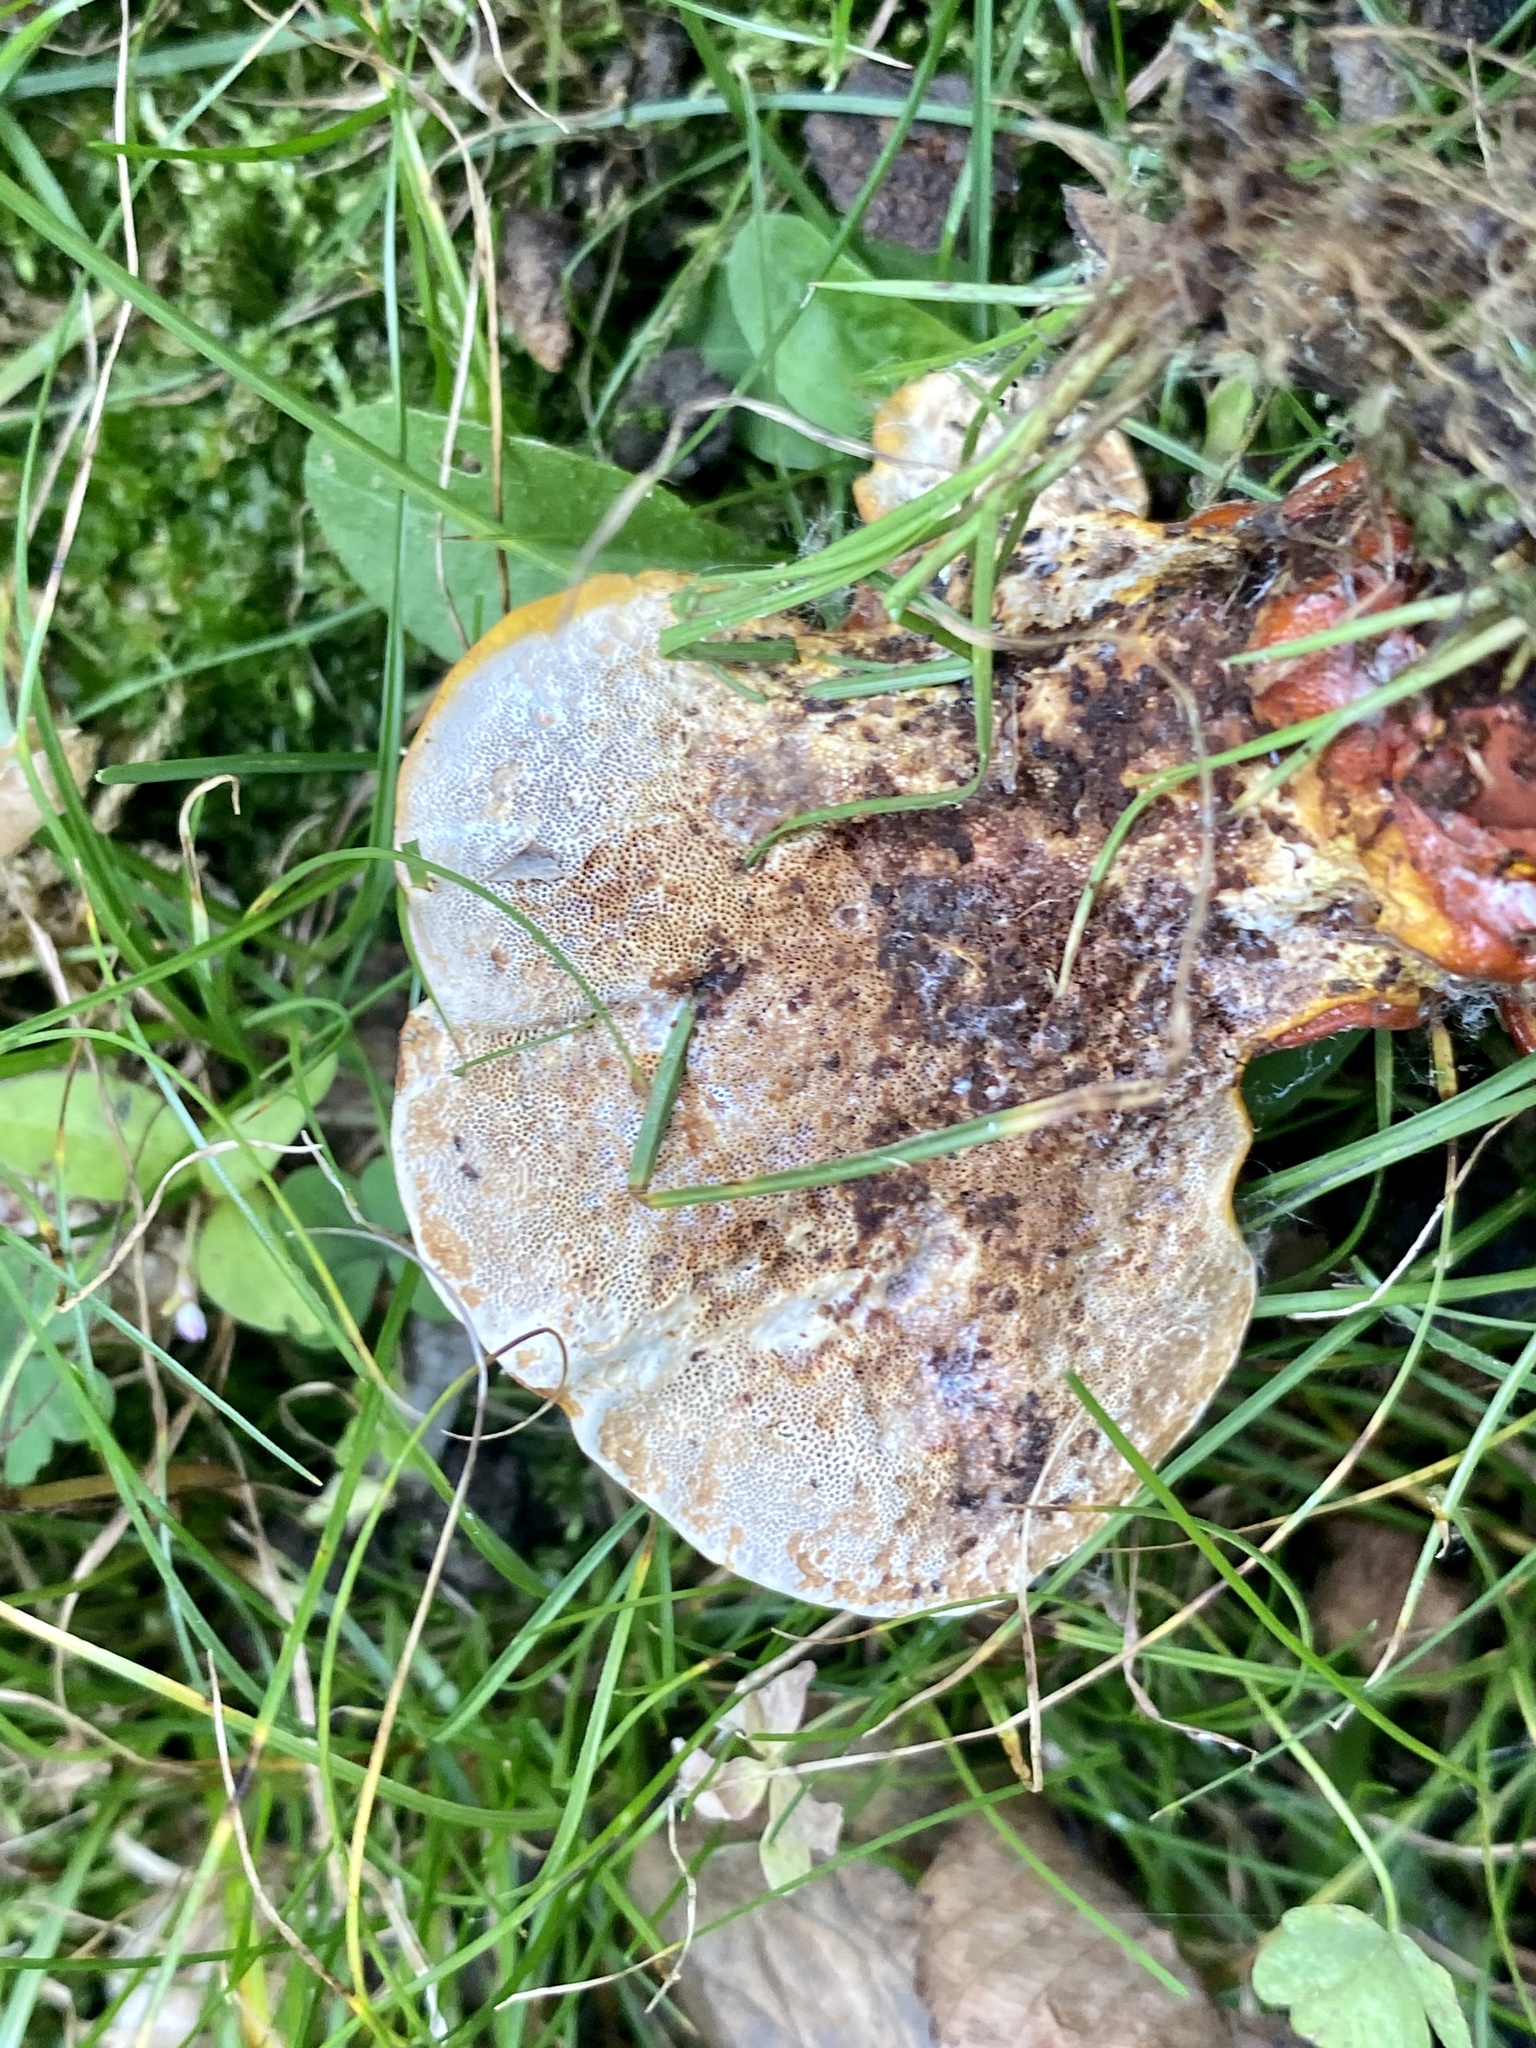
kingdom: Fungi
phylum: Basidiomycota
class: Agaricomycetes
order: Polyporales
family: Polyporaceae
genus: Ganoderma
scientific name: Ganoderma resinaceum
